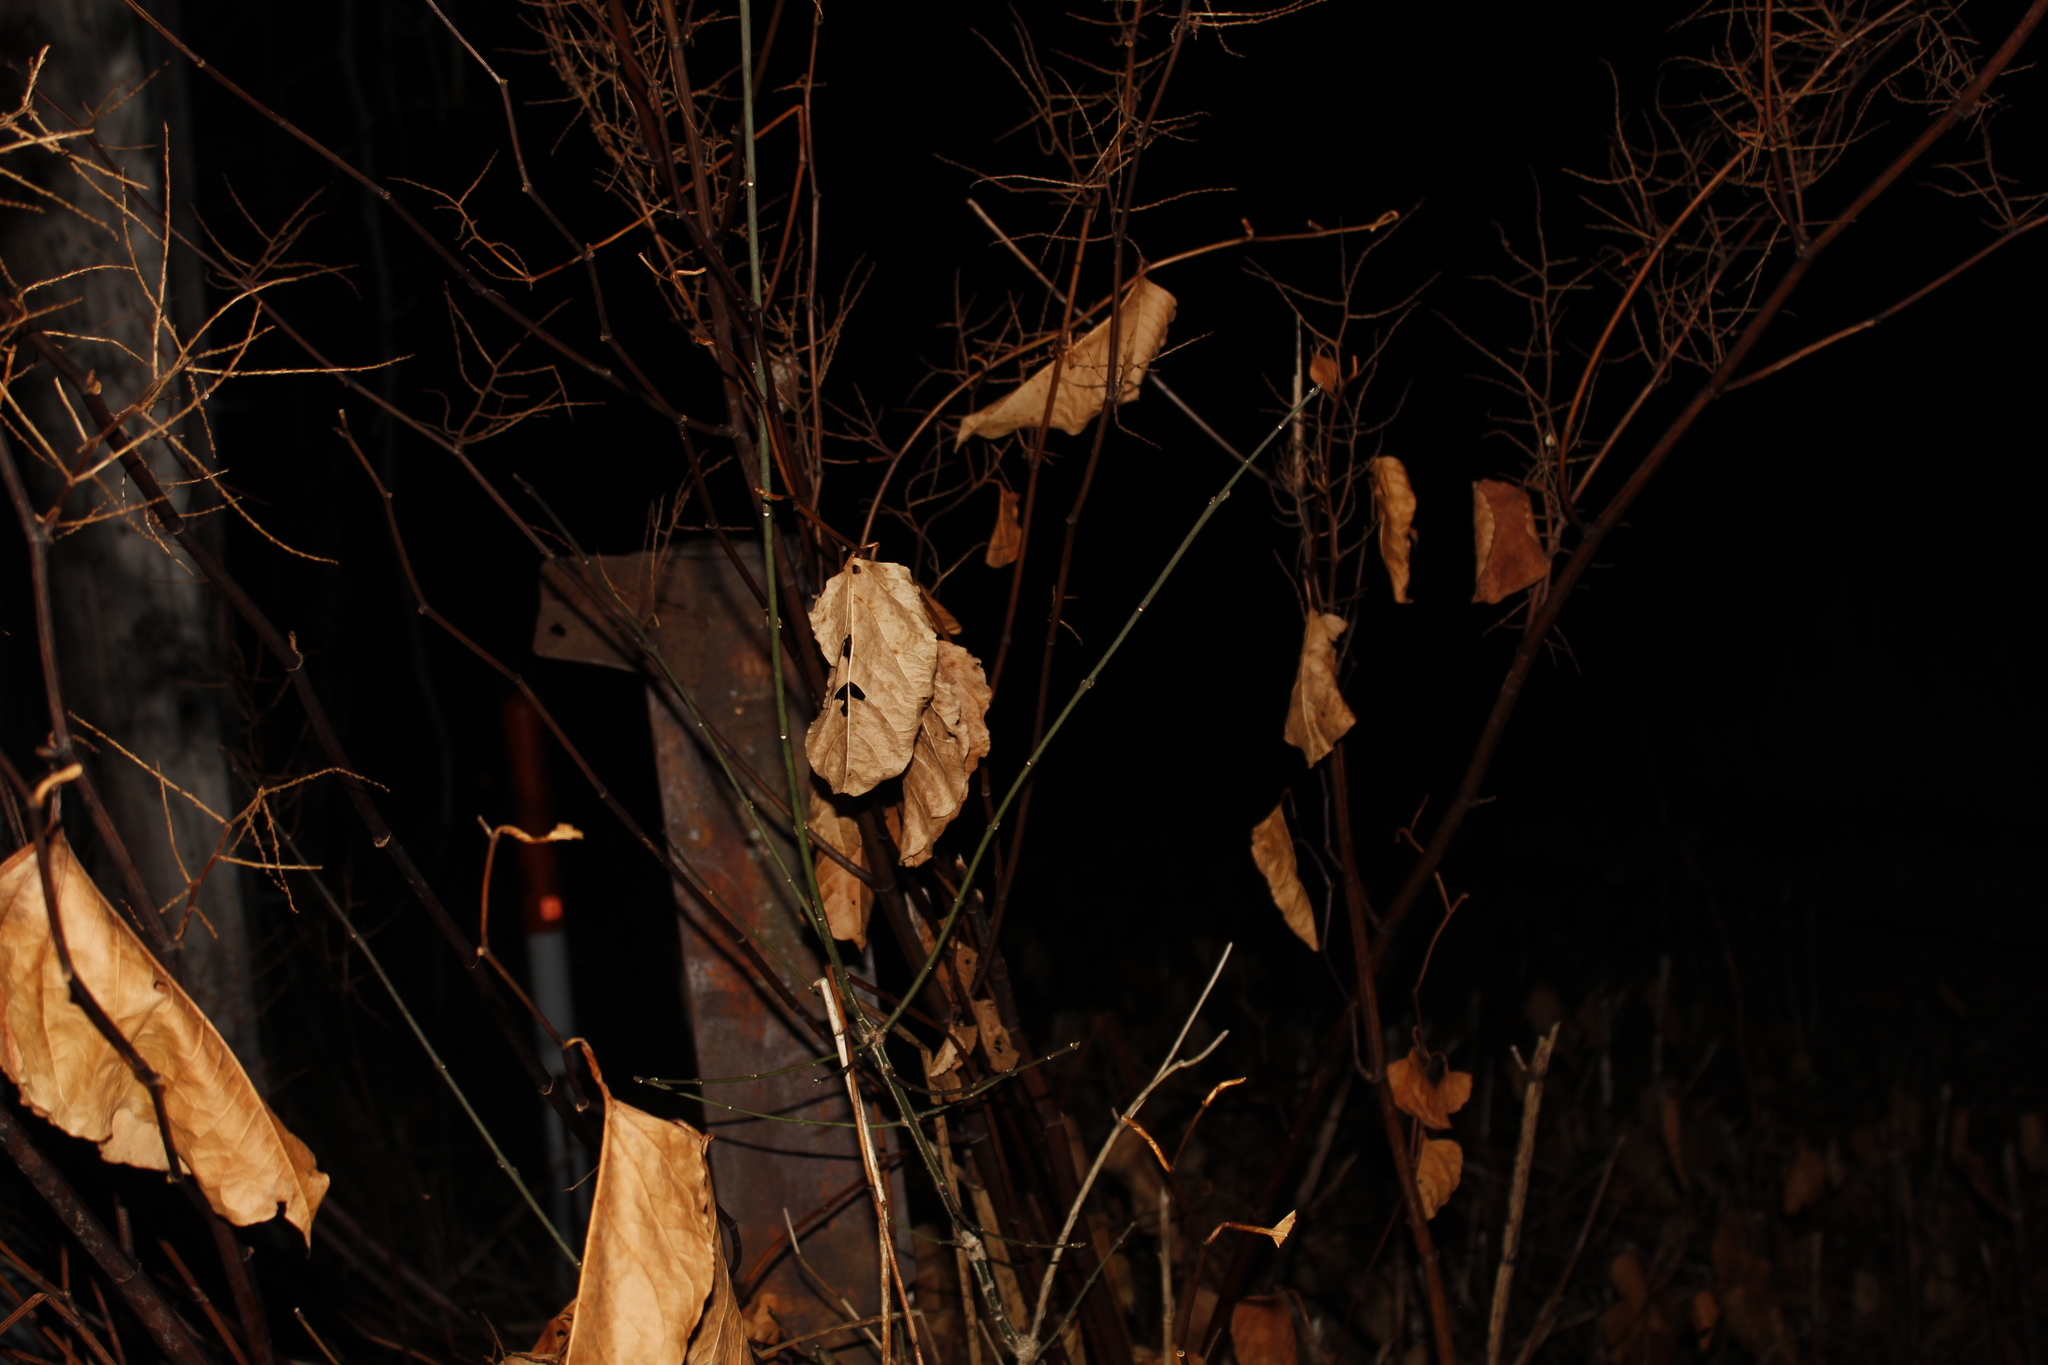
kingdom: Plantae
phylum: Tracheophyta
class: Magnoliopsida
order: Caryophyllales
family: Polygonaceae
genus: Reynoutria
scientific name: Reynoutria japonica
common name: Japanese knotweed
